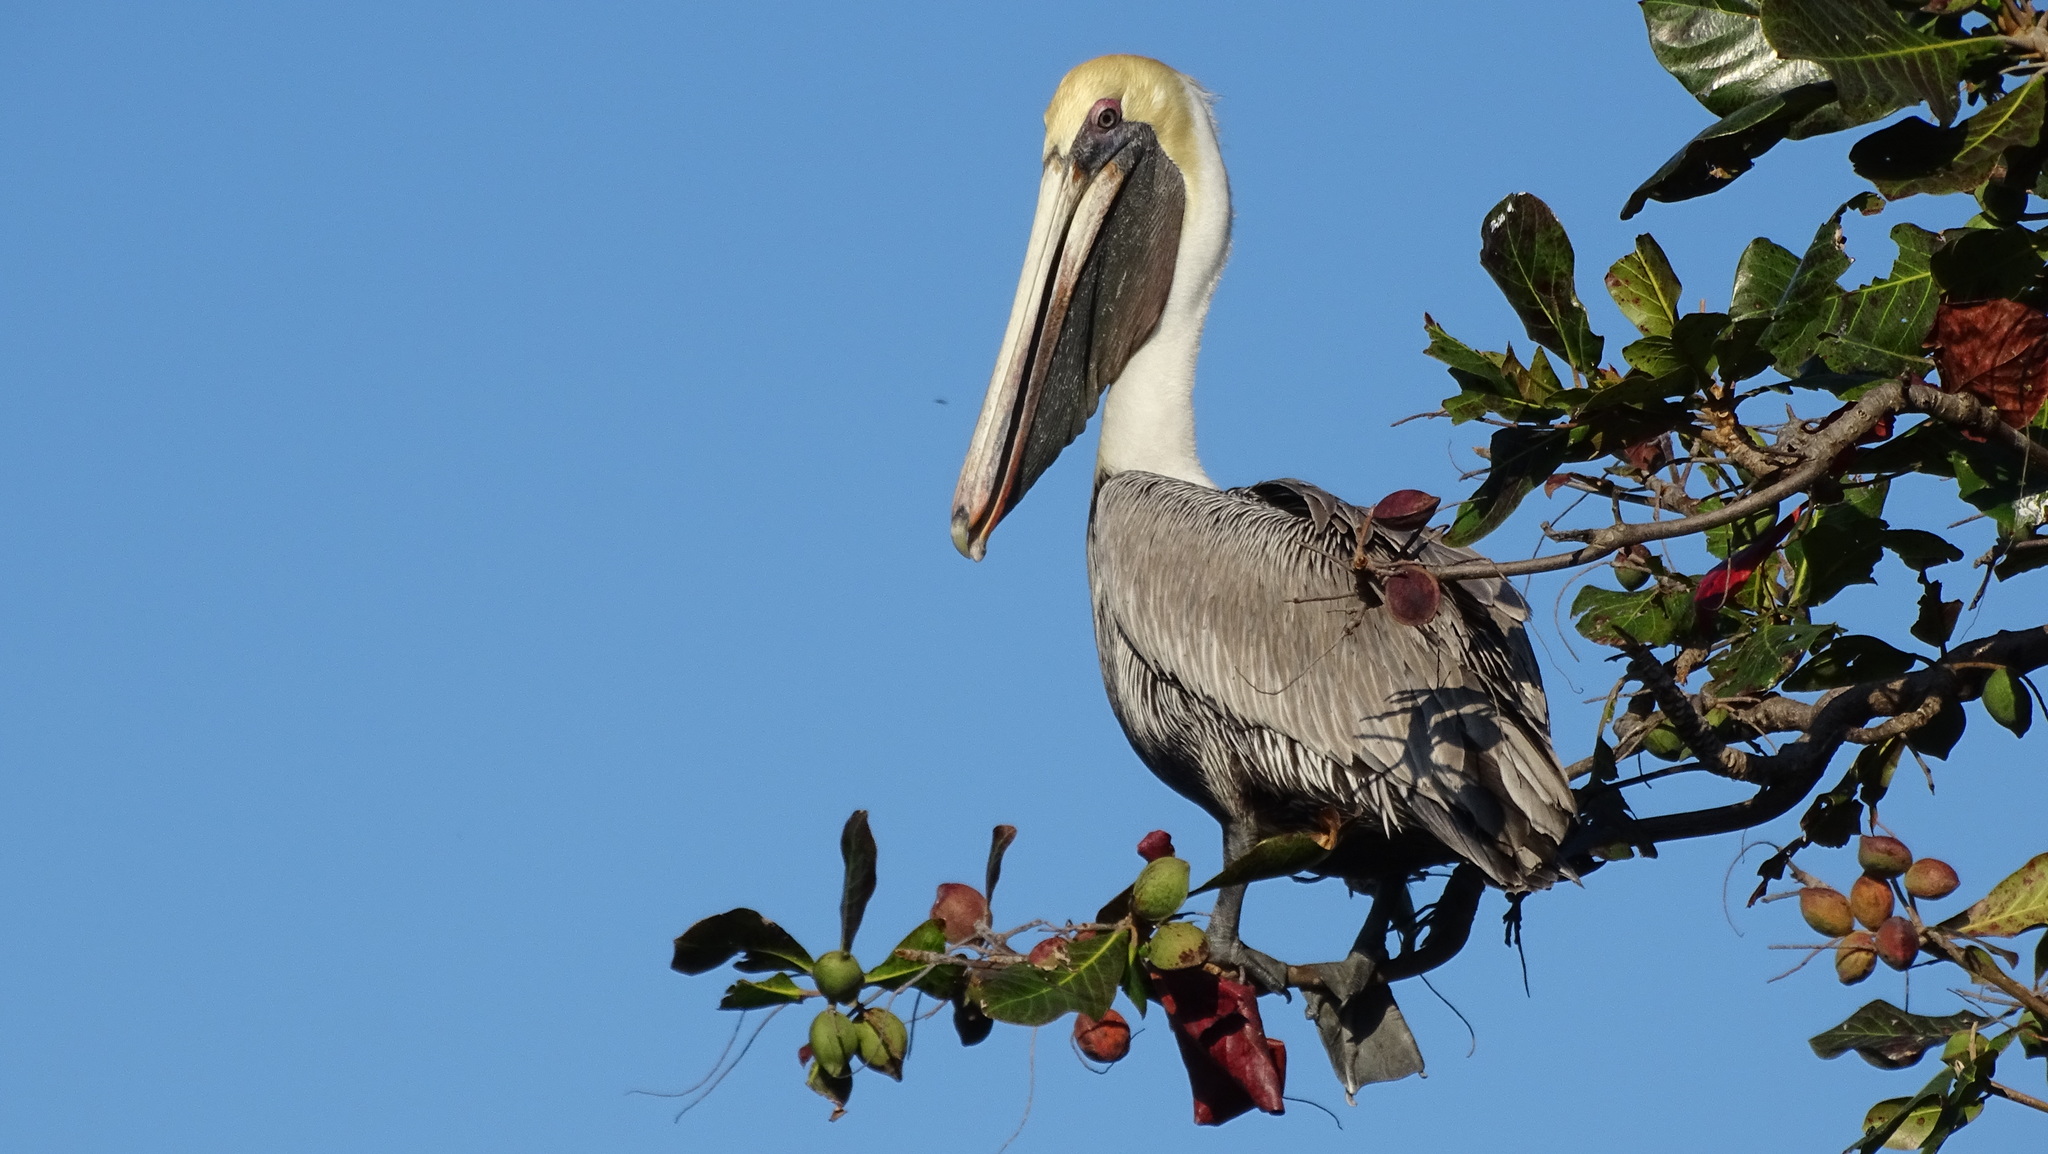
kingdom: Animalia
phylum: Chordata
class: Aves
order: Pelecaniformes
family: Pelecanidae
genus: Pelecanus
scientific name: Pelecanus occidentalis
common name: Brown pelican
